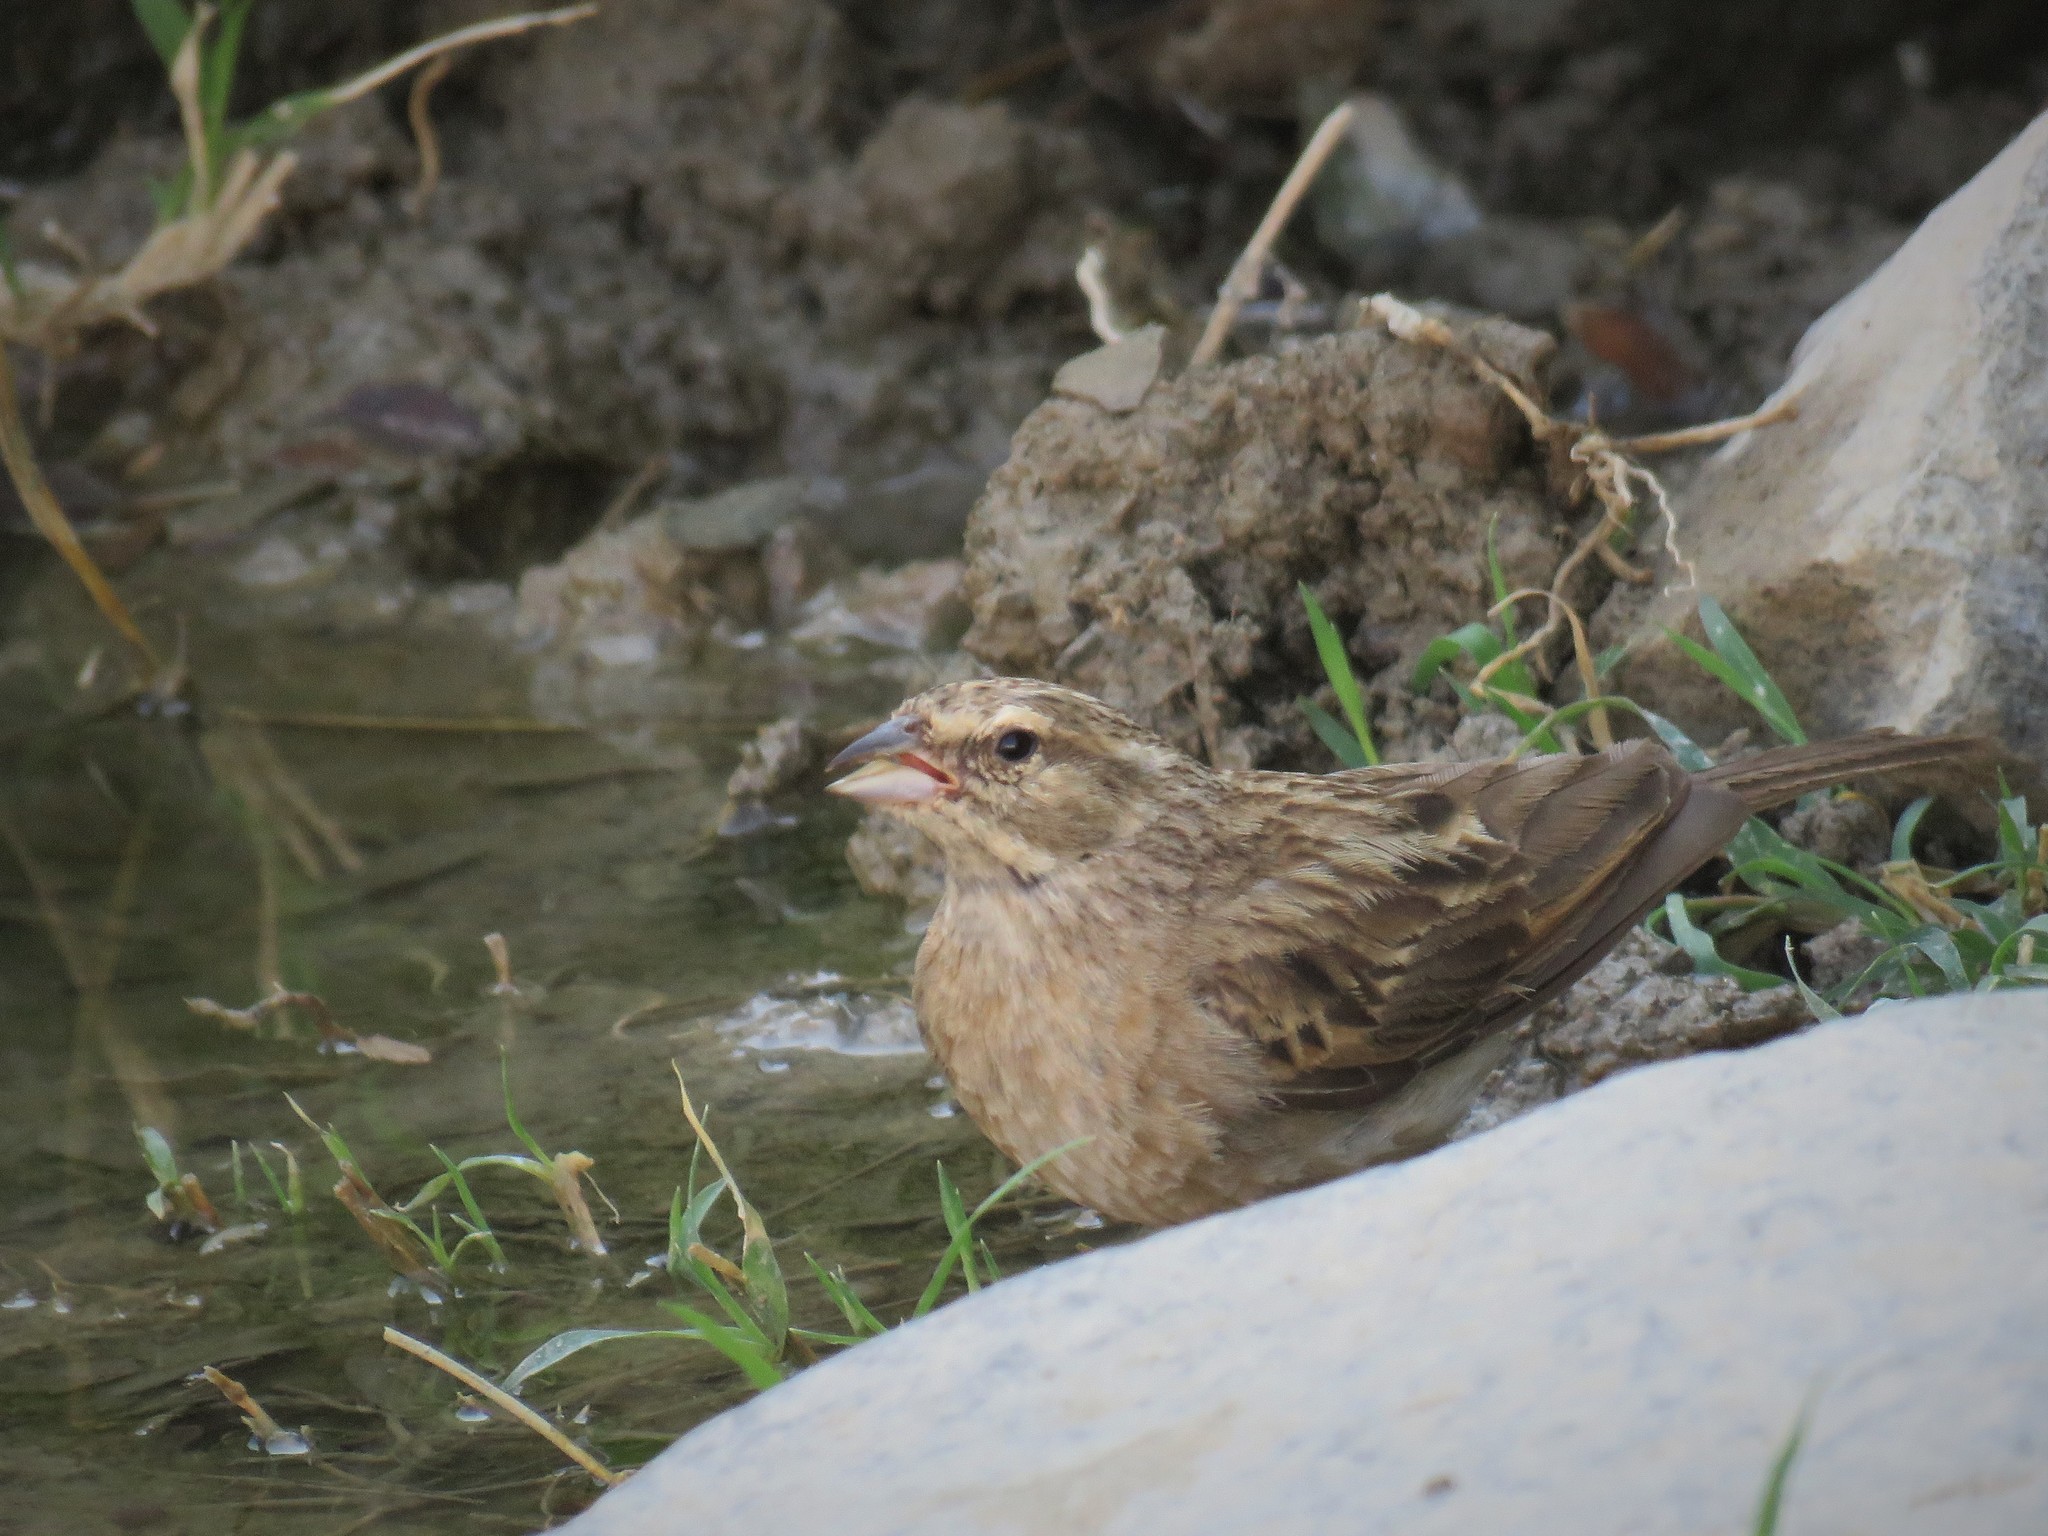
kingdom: Animalia
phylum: Chordata
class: Aves
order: Passeriformes
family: Emberizidae
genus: Emberiza
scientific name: Emberiza impetuani
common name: Lark-like bunting
